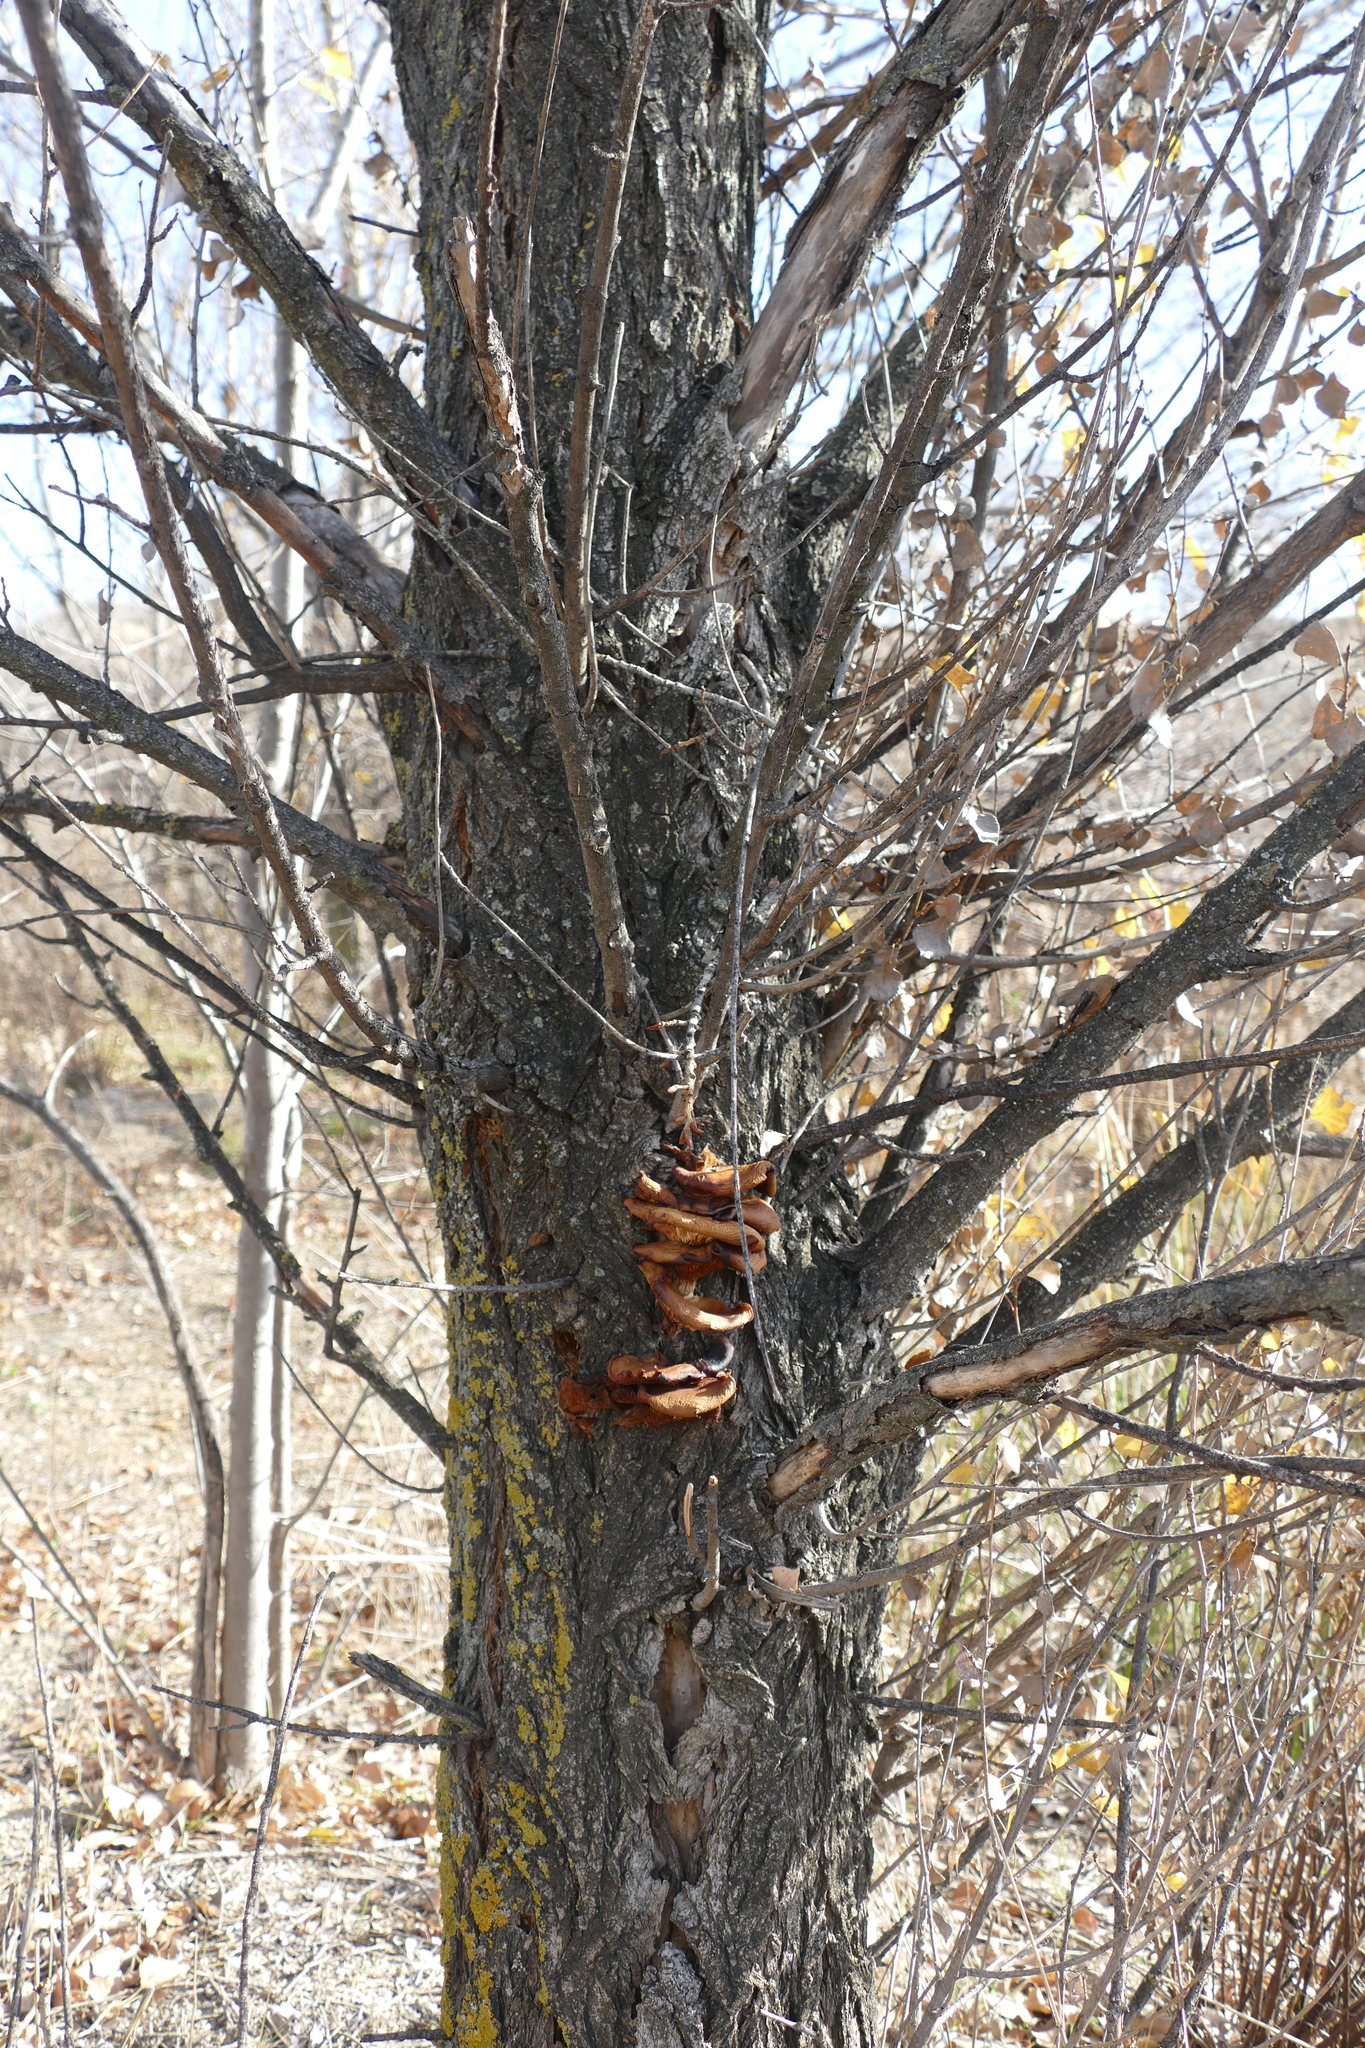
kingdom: Fungi
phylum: Basidiomycota
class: Agaricomycetes
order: Agaricales
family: Tubariaceae
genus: Cyclocybe
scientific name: Cyclocybe cylindracea
